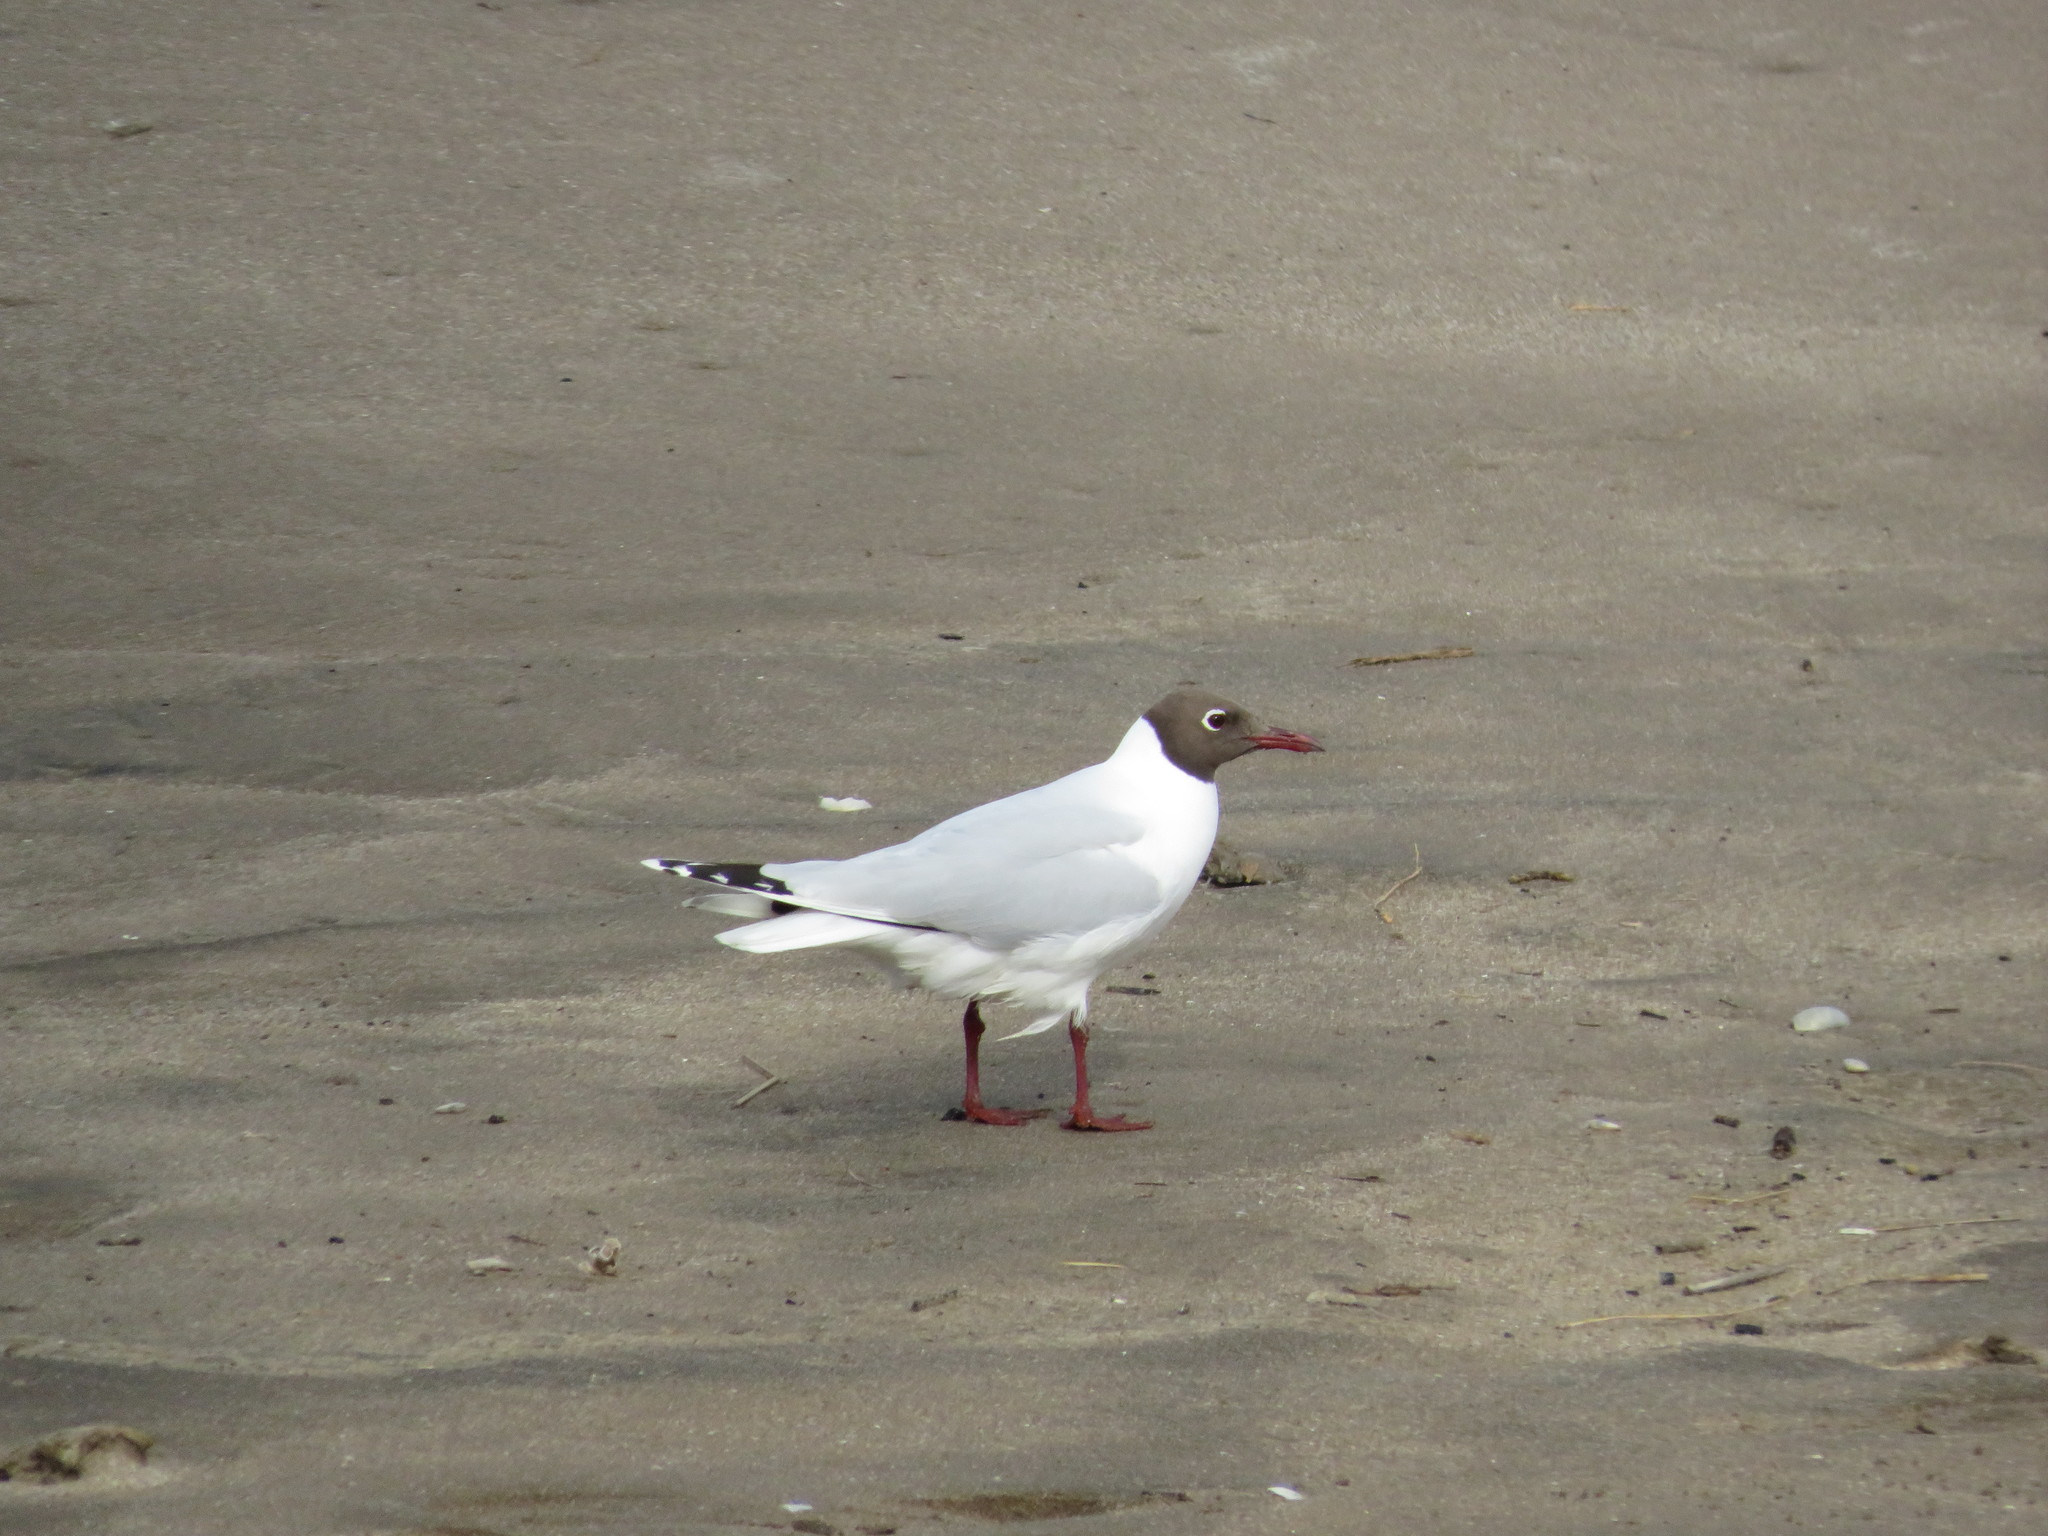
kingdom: Animalia
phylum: Chordata
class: Aves
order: Charadriiformes
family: Laridae
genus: Chroicocephalus
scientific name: Chroicocephalus maculipennis
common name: Brown-hooded gull
